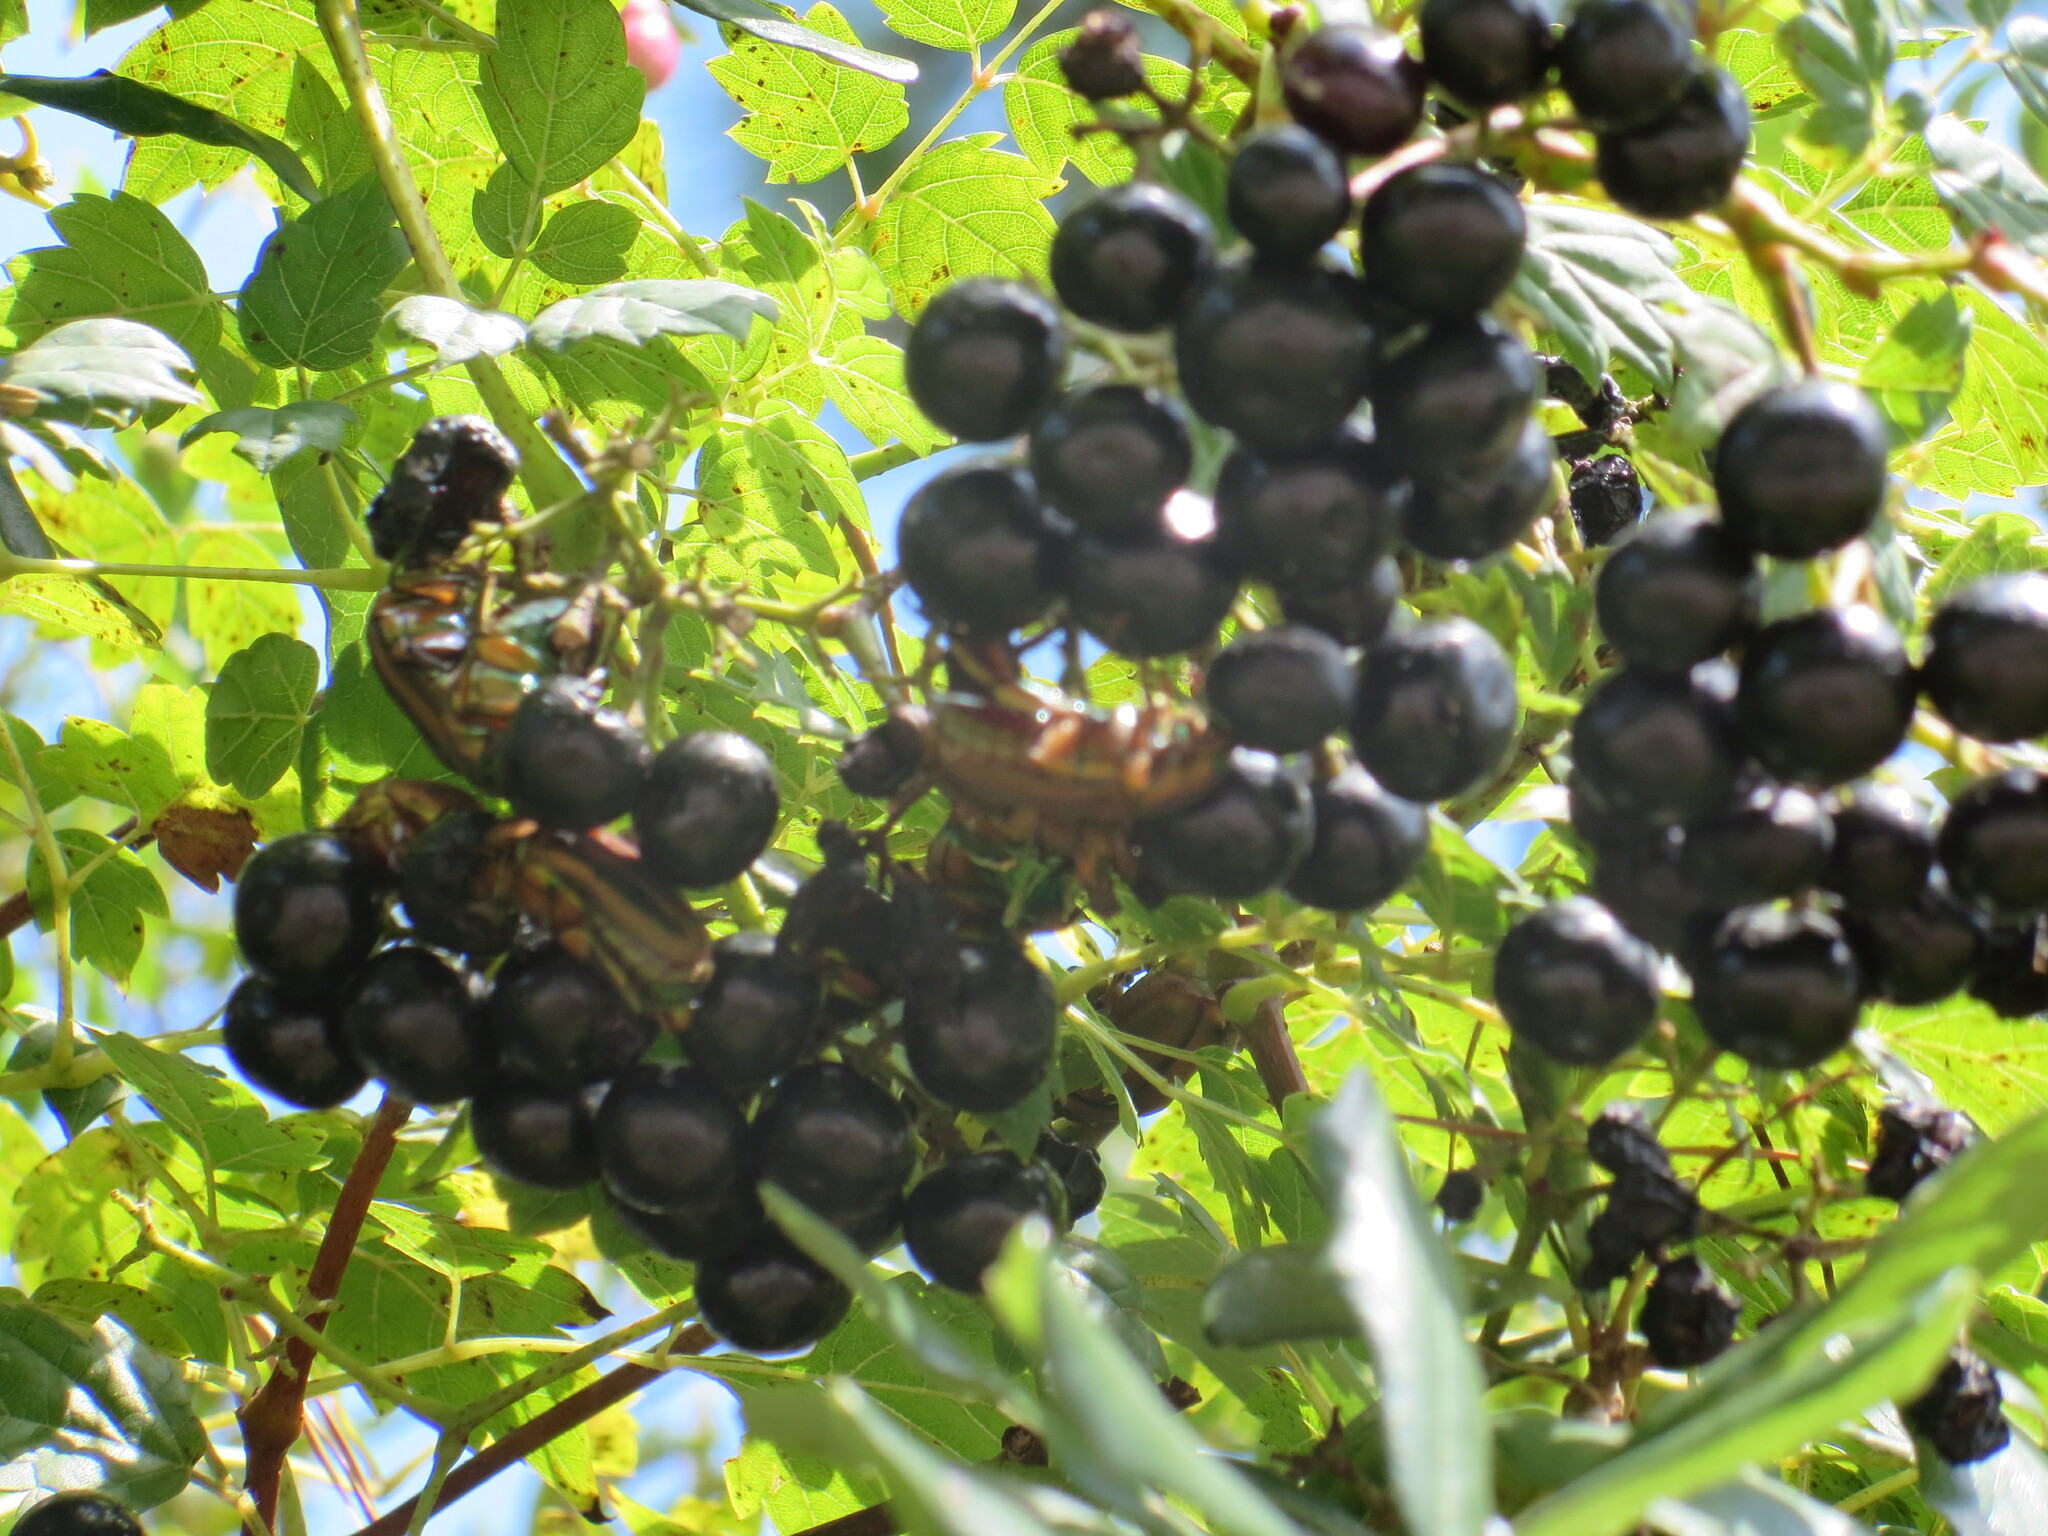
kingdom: Animalia
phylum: Arthropoda
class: Insecta
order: Coleoptera
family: Scarabaeidae
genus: Cotinis
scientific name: Cotinis nitida
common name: Common green june beetle
